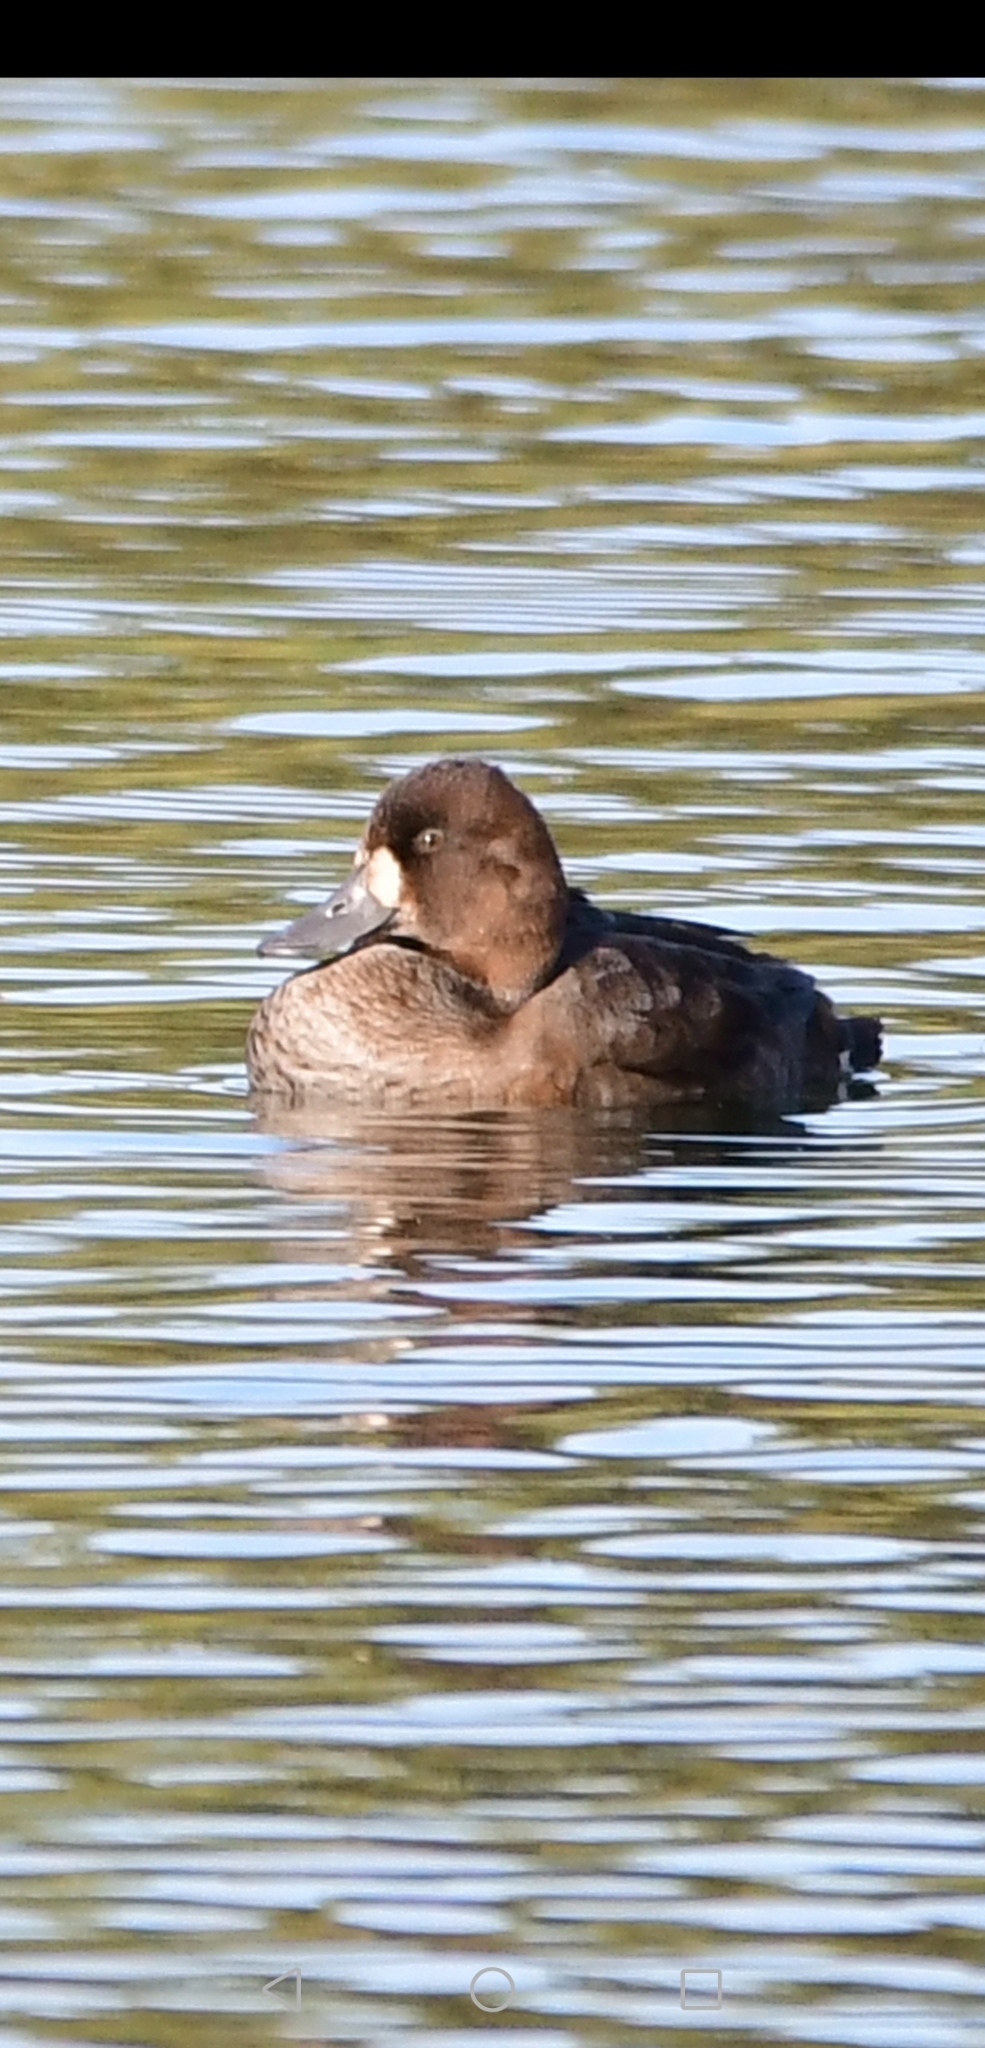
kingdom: Animalia
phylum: Chordata
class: Aves
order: Anseriformes
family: Anatidae
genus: Aythya
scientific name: Aythya marila
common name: Greater scaup
